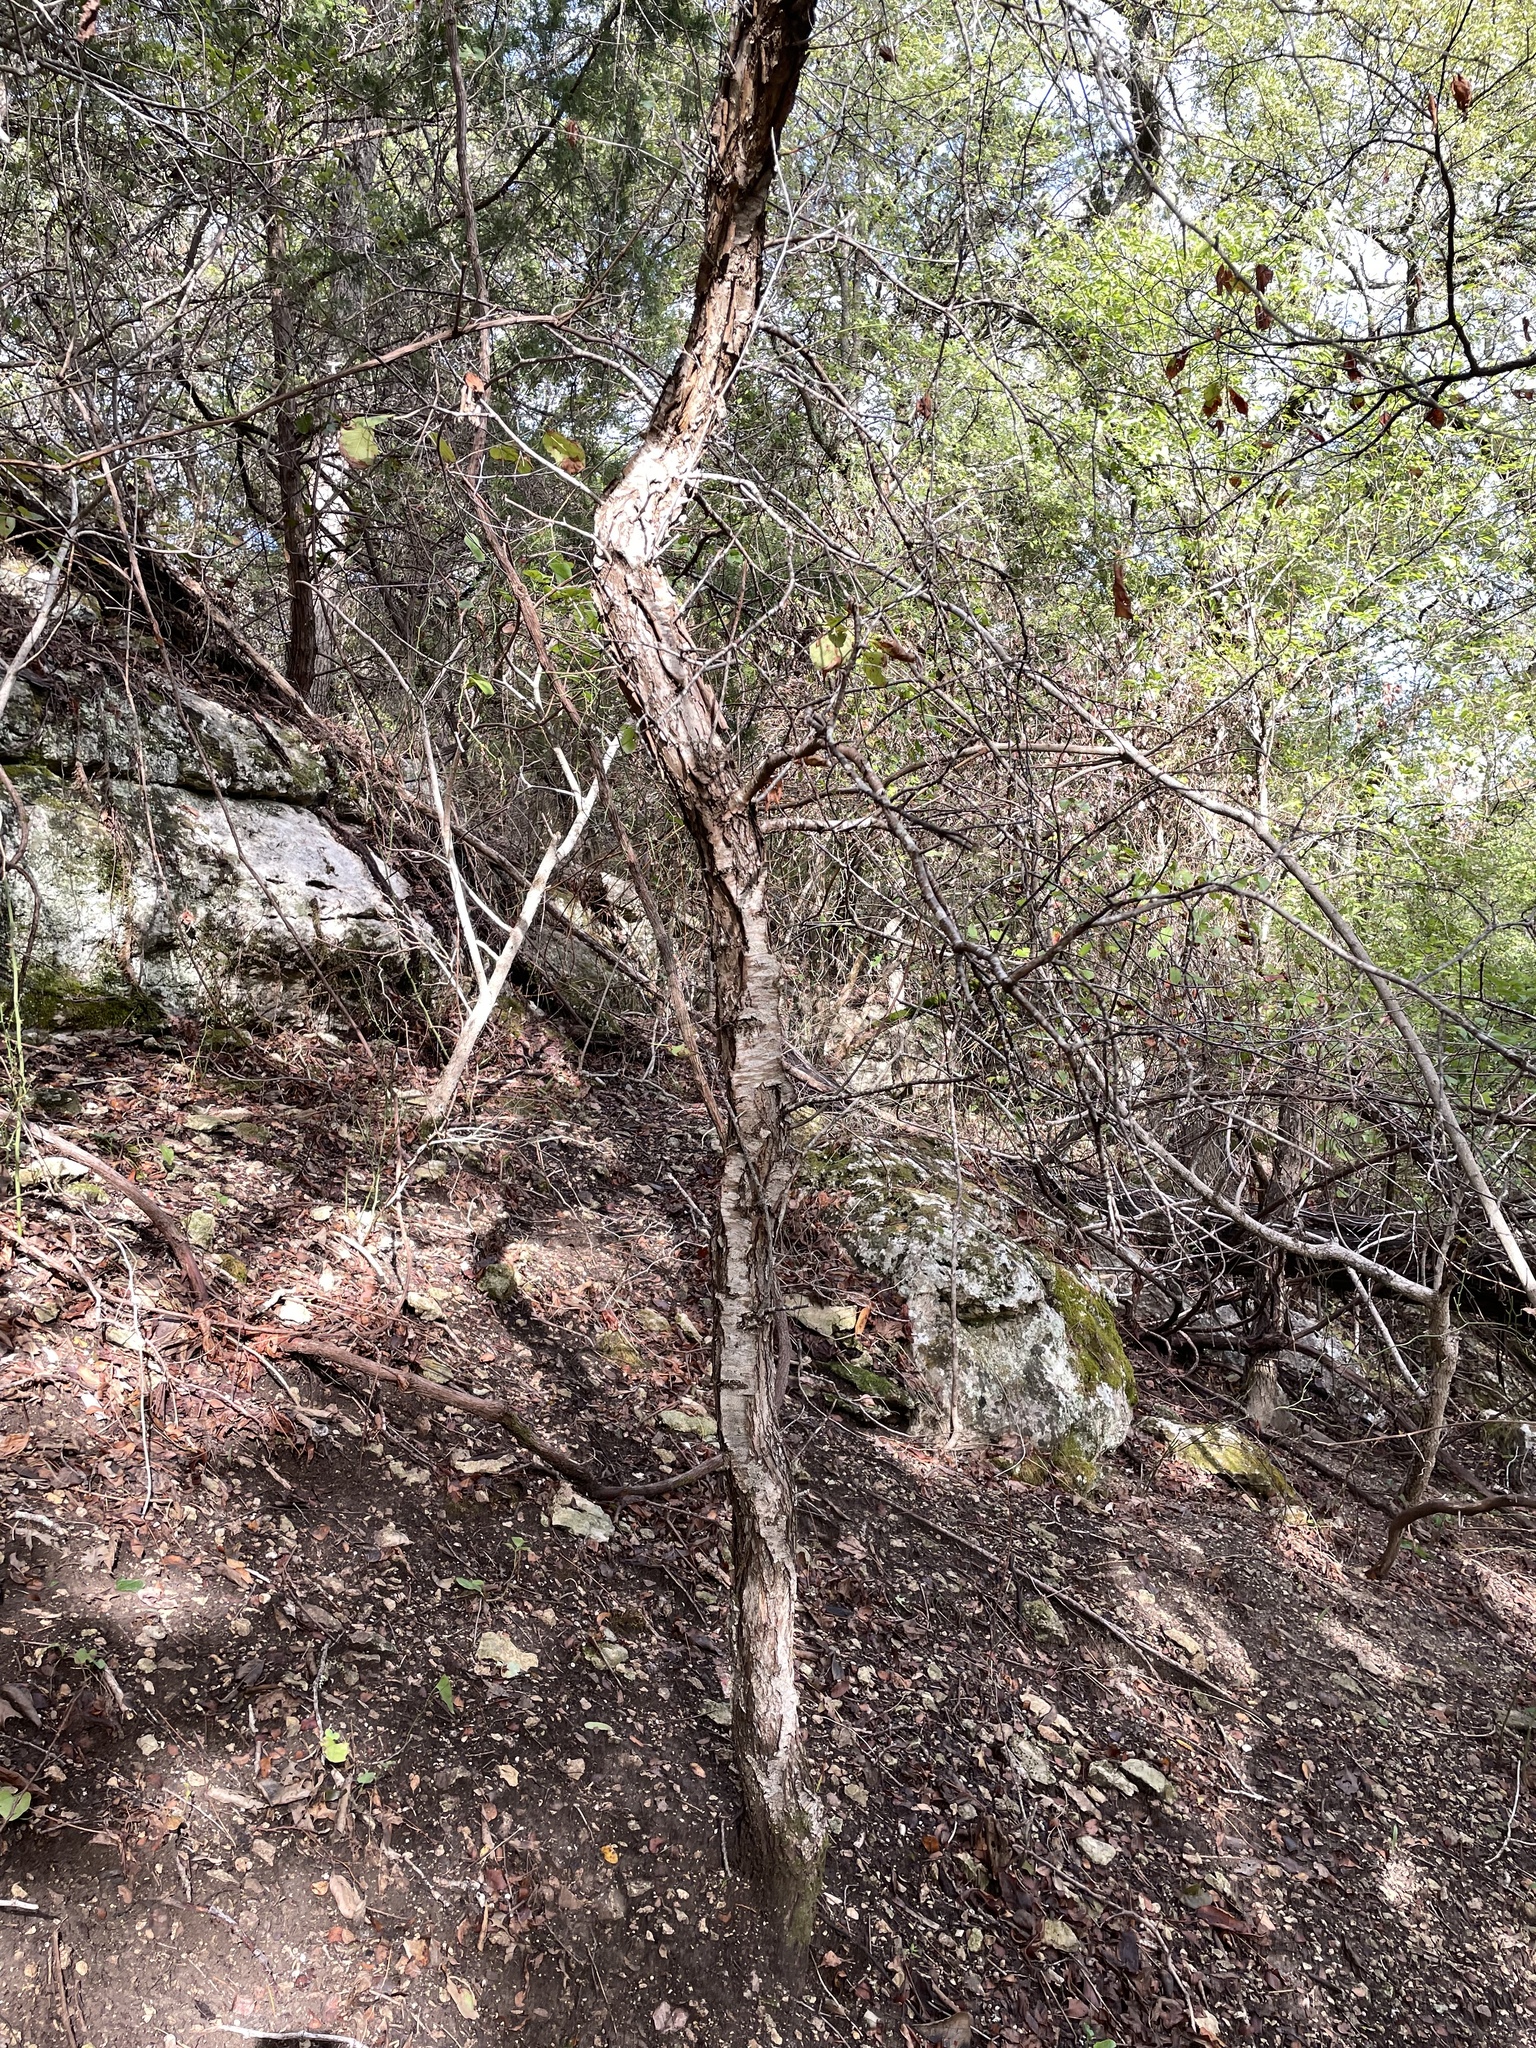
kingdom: Plantae
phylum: Tracheophyta
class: Magnoliopsida
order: Rosales
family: Rosaceae
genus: Prunus
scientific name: Prunus mexicana
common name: Mexican plum
